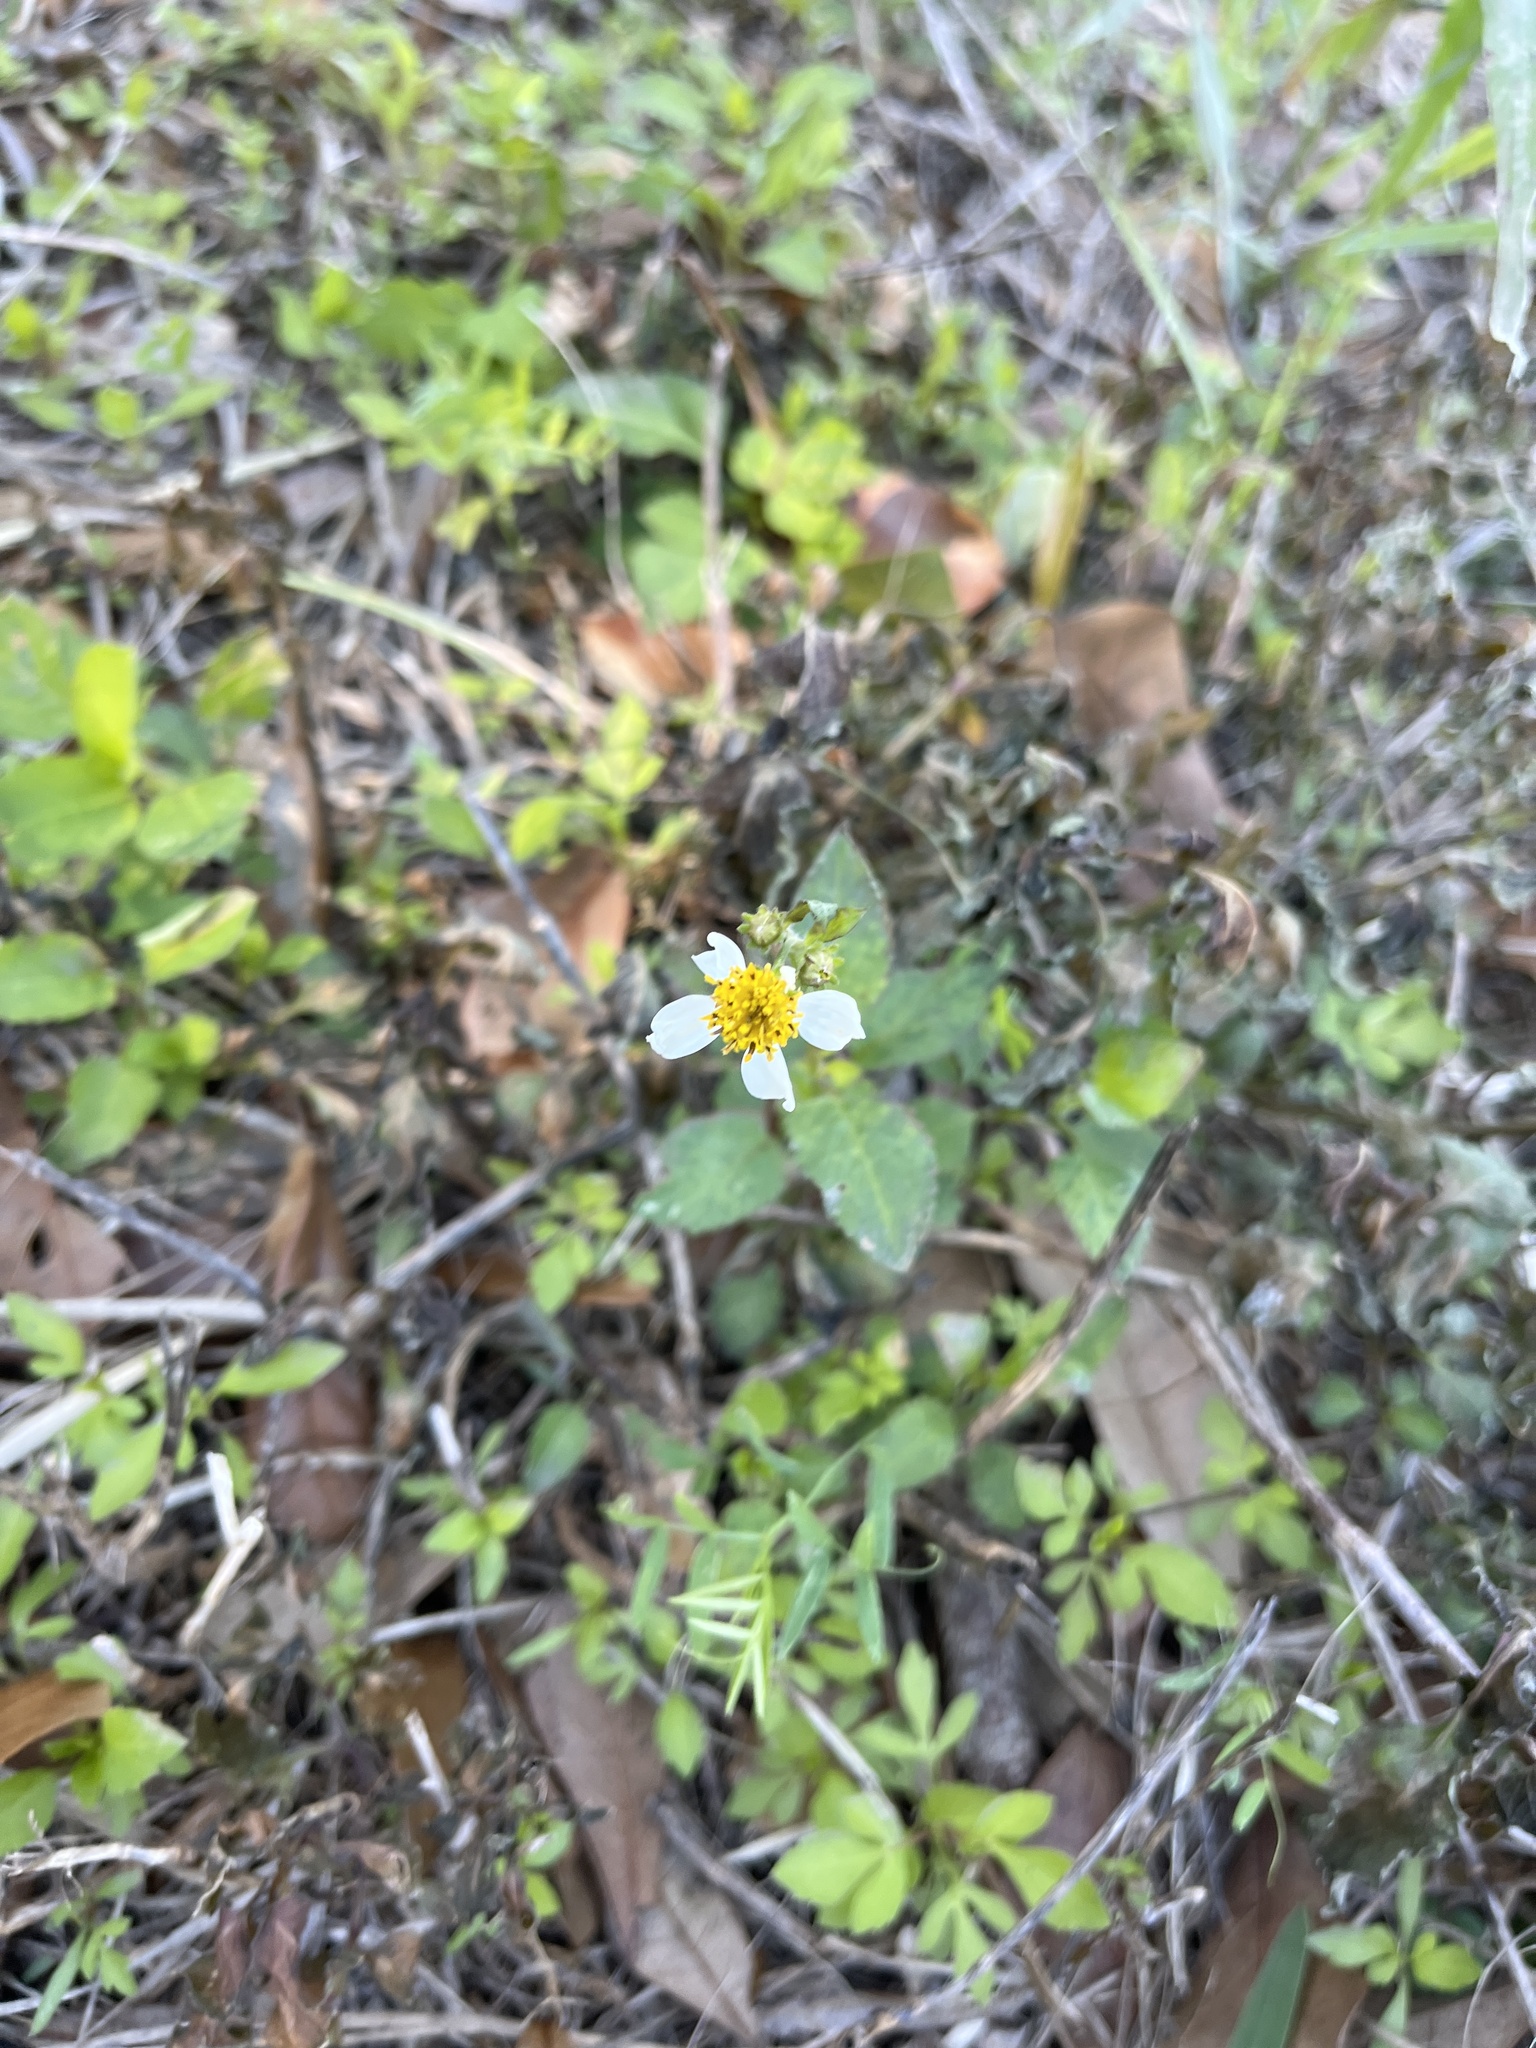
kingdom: Plantae
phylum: Tracheophyta
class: Magnoliopsida
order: Asterales
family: Asteraceae
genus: Bidens
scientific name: Bidens alba
